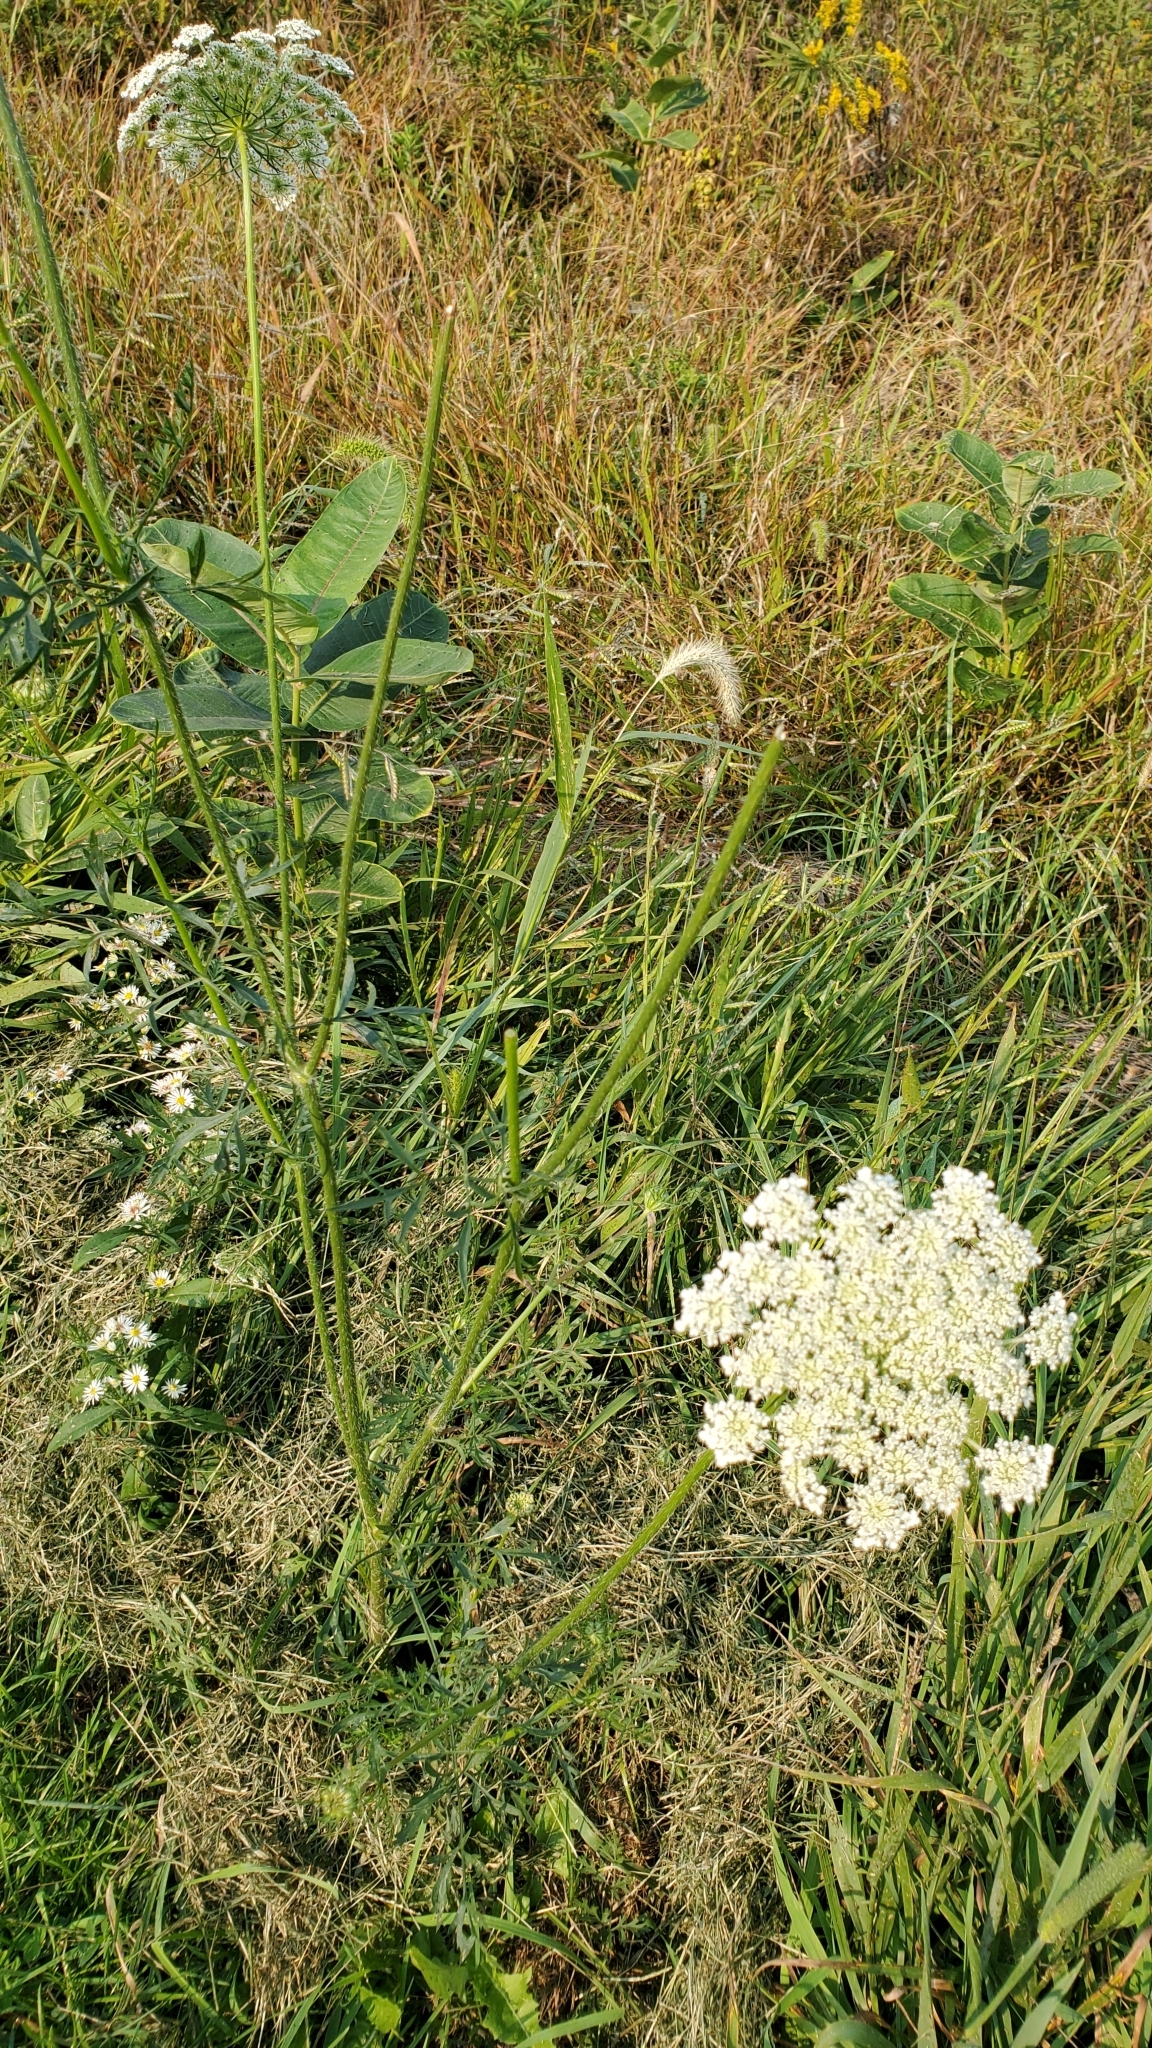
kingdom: Plantae
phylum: Tracheophyta
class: Magnoliopsida
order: Apiales
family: Apiaceae
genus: Daucus
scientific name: Daucus carota
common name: Wild carrot
